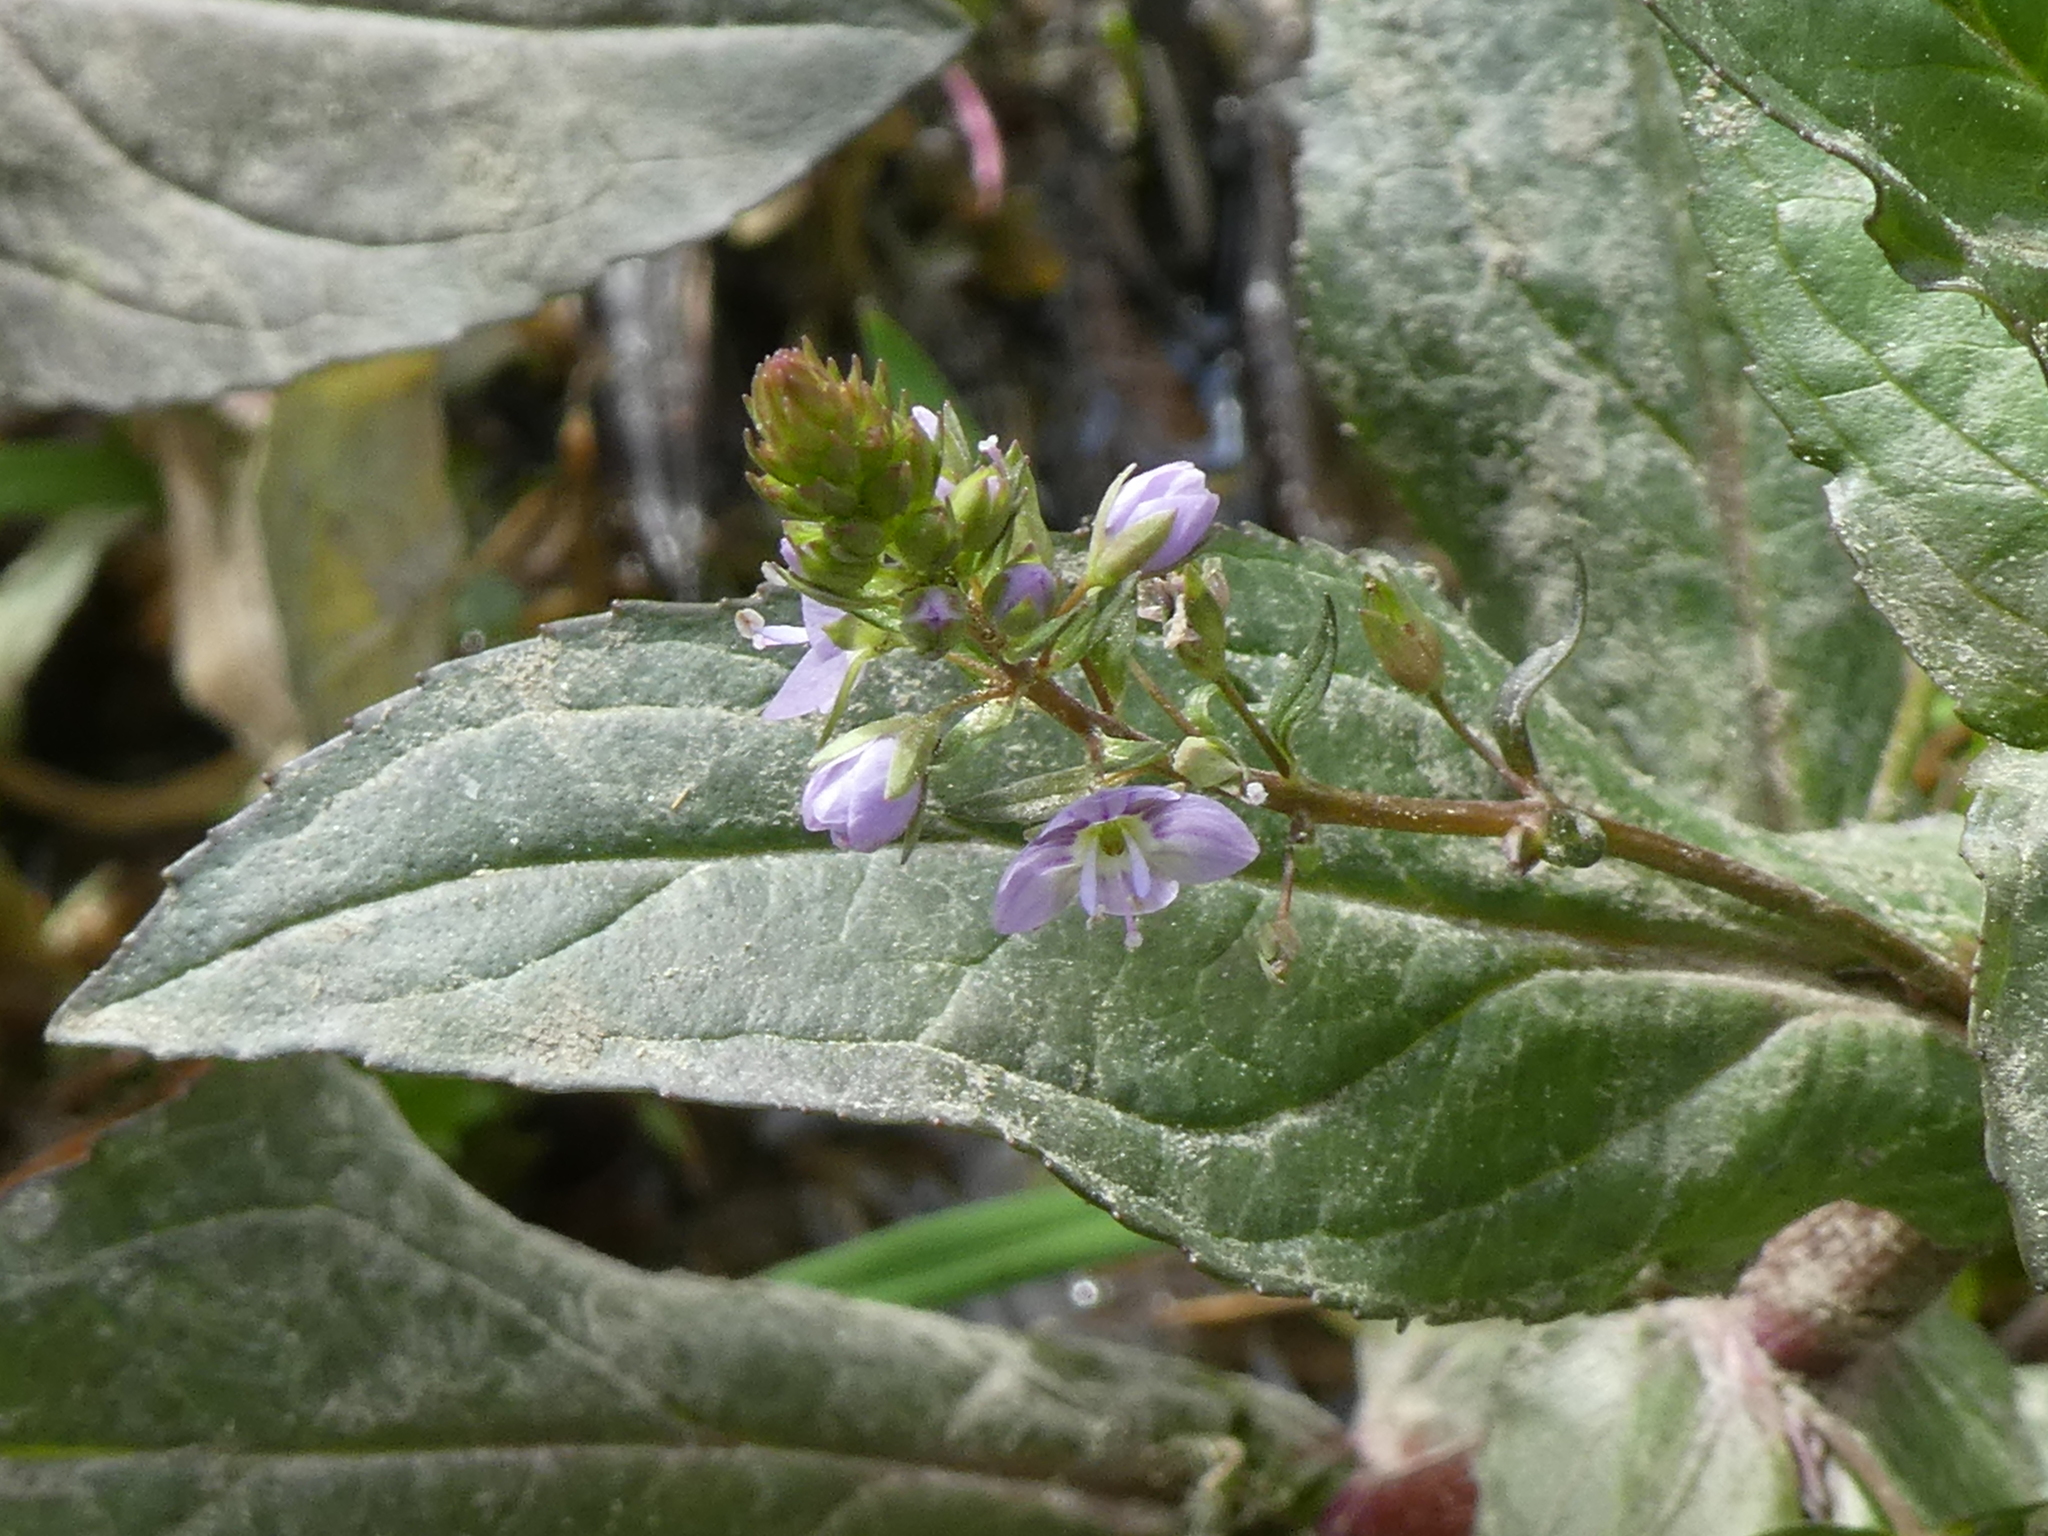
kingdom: Plantae
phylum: Tracheophyta
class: Magnoliopsida
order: Lamiales
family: Plantaginaceae
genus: Veronica
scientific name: Veronica anagallis-aquatica
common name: Water speedwell
